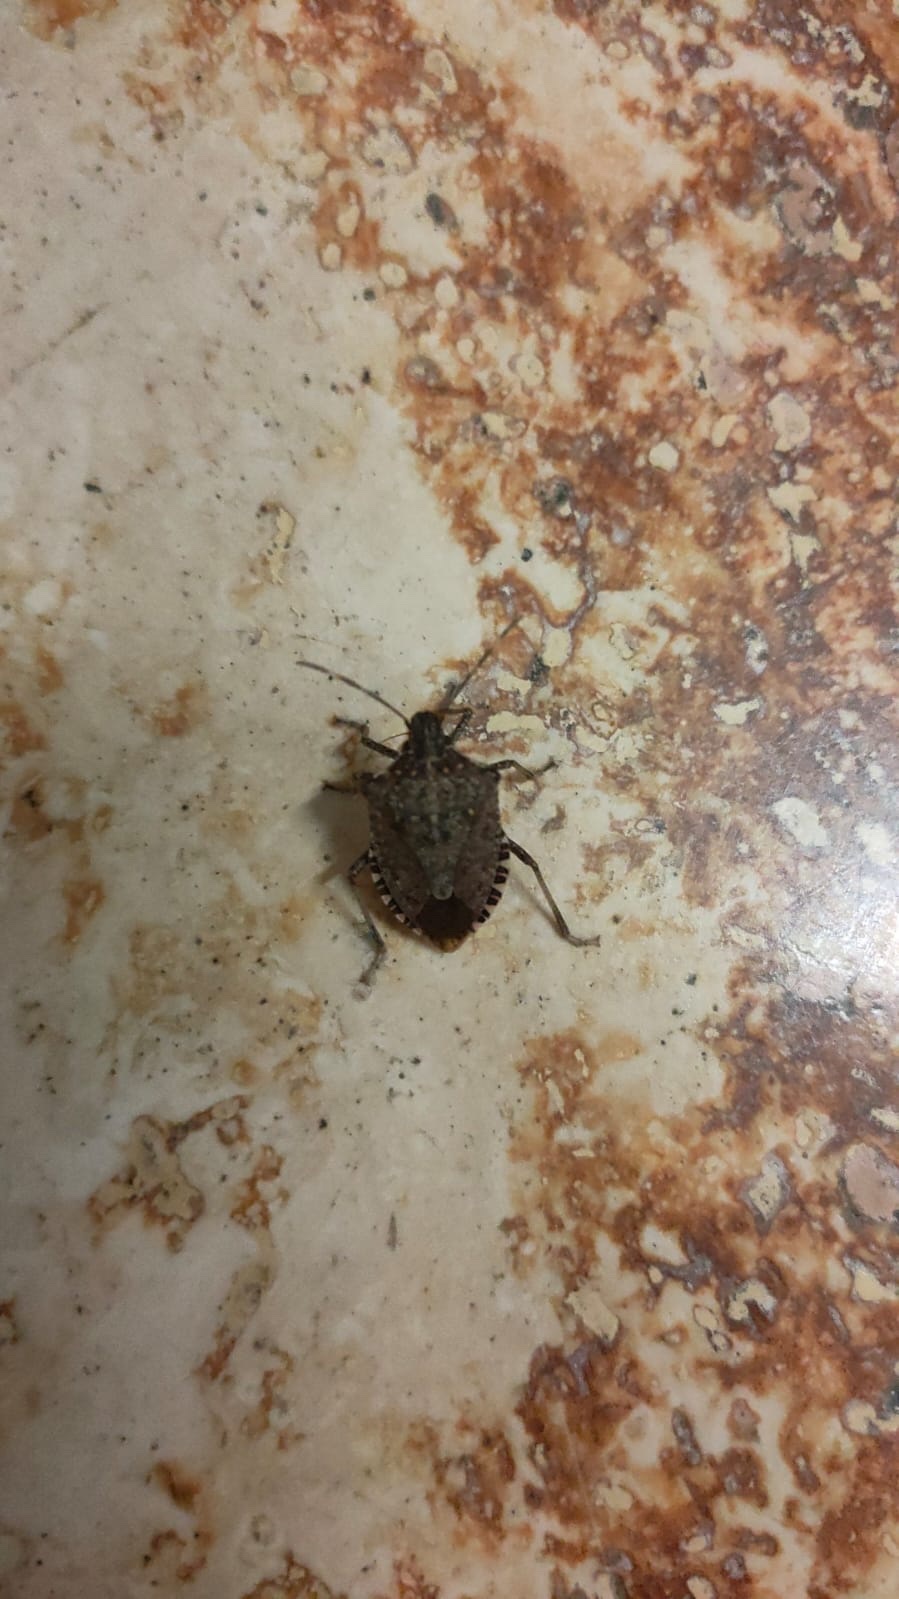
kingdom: Animalia
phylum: Arthropoda
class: Insecta
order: Hemiptera
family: Pentatomidae
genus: Halyomorpha
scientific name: Halyomorpha halys
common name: Brown marmorated stink bug
